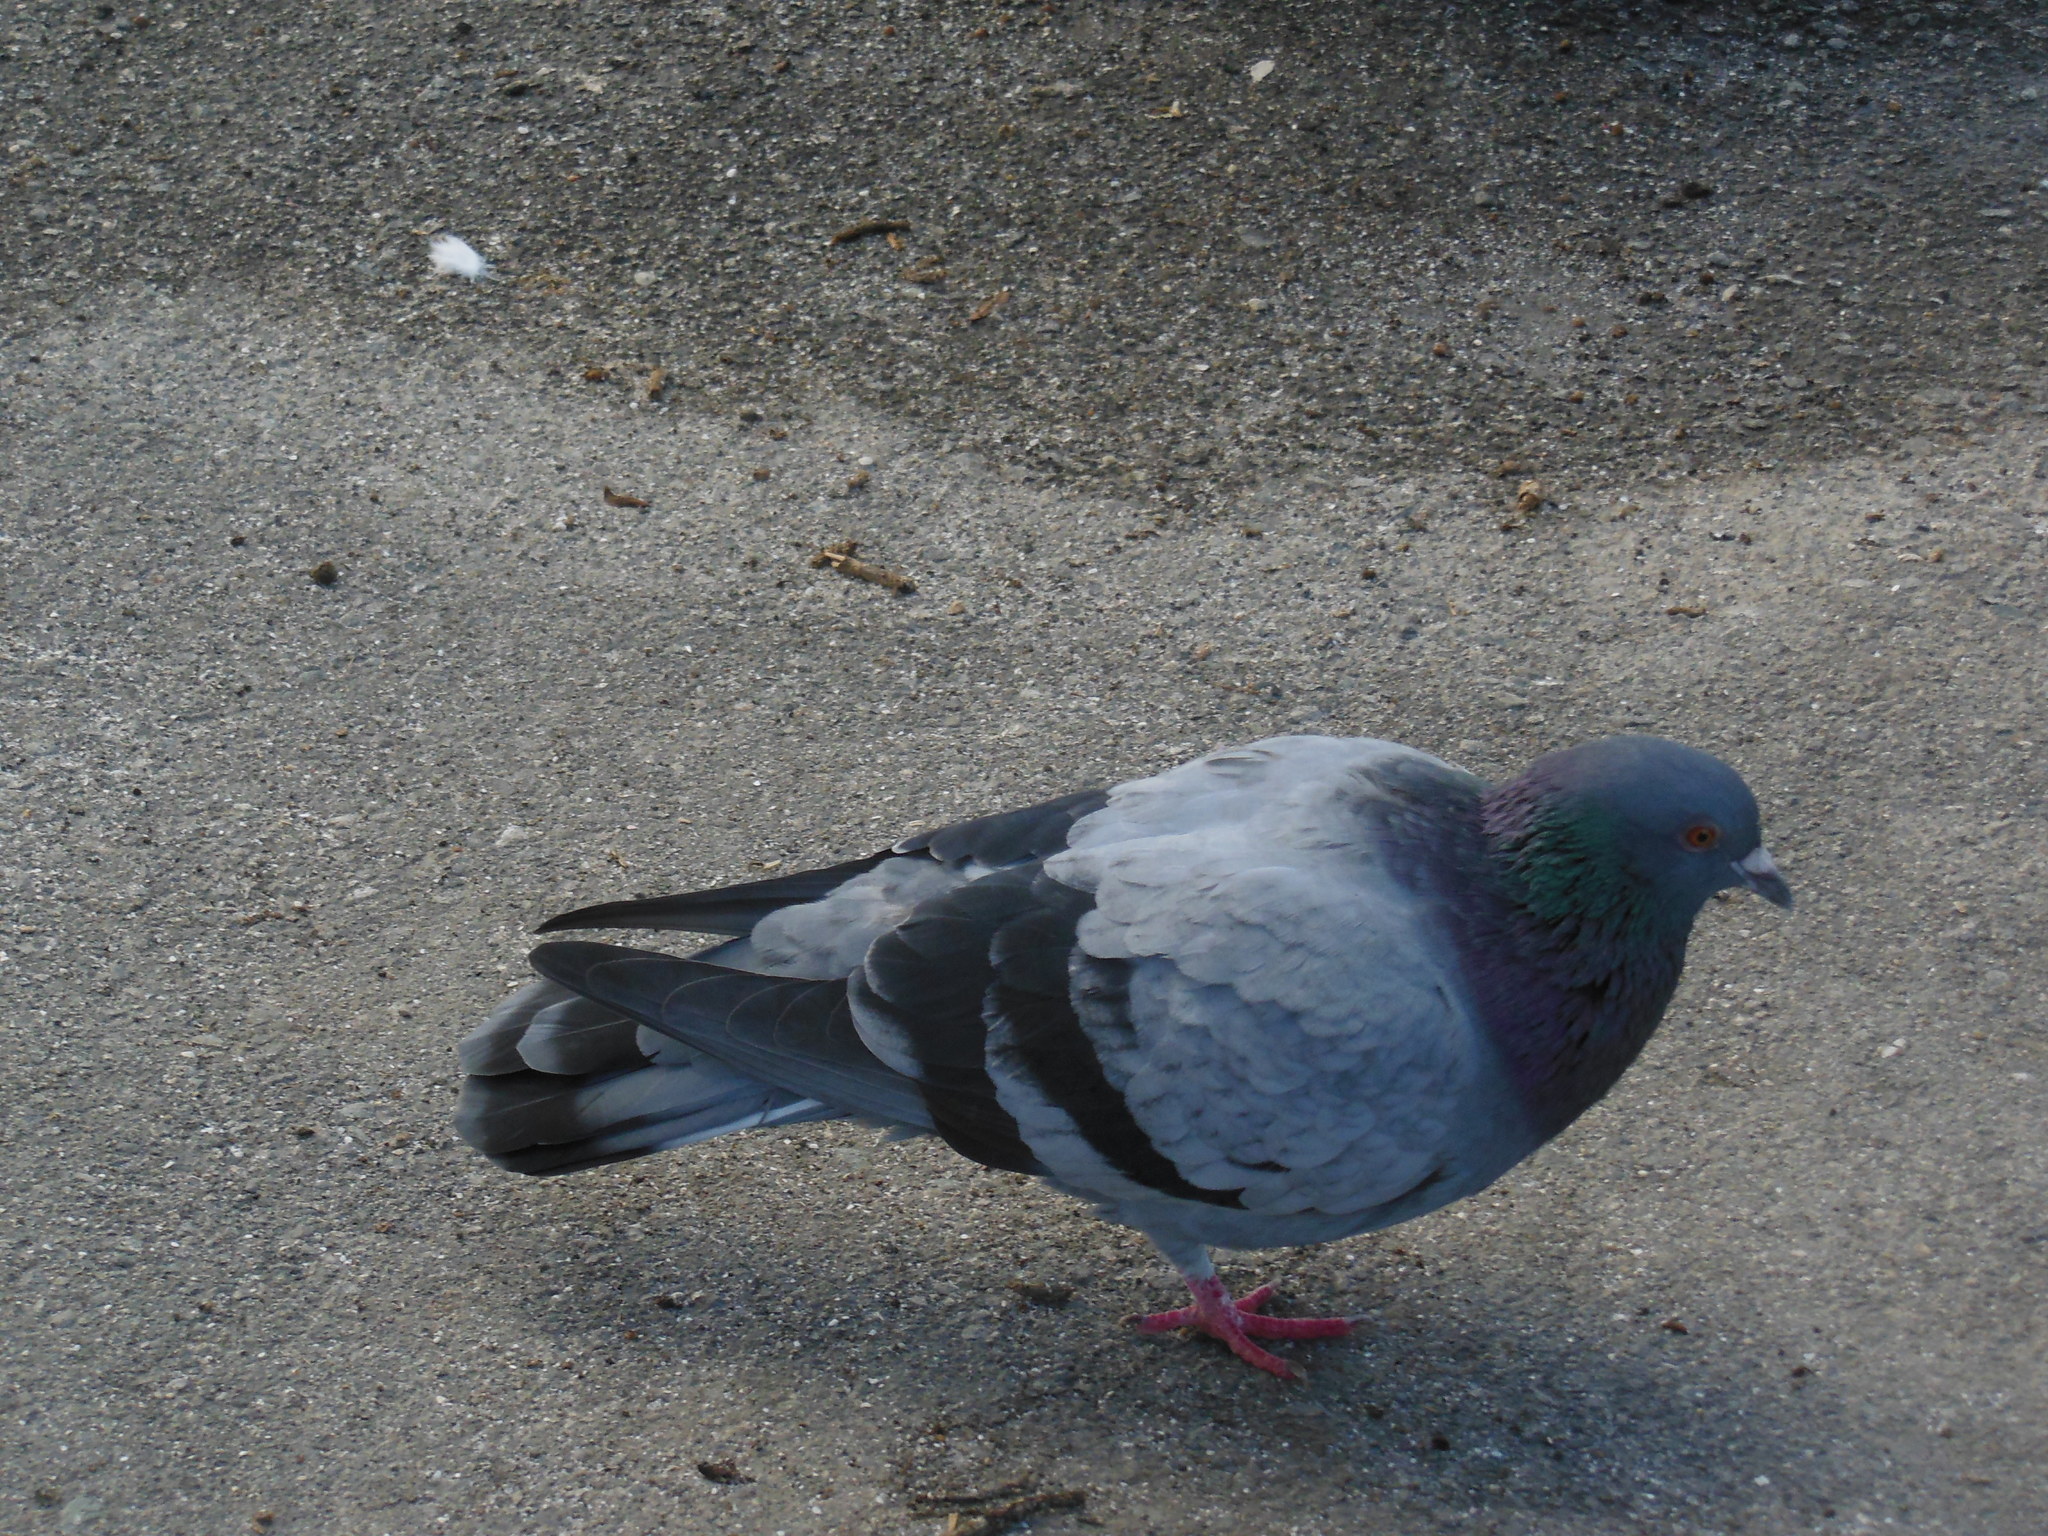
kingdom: Animalia
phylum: Chordata
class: Aves
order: Columbiformes
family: Columbidae
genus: Columba
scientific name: Columba livia
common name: Rock pigeon
